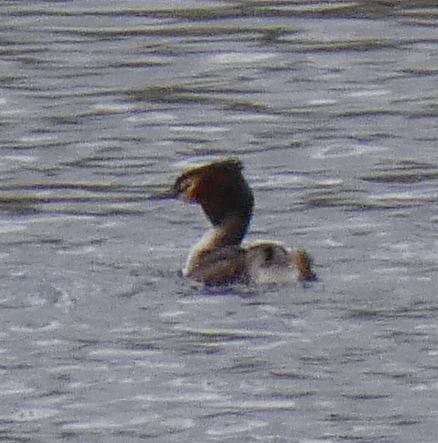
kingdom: Animalia
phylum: Chordata
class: Aves
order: Podicipediformes
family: Podicipedidae
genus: Podiceps
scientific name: Podiceps cristatus
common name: Great crested grebe
